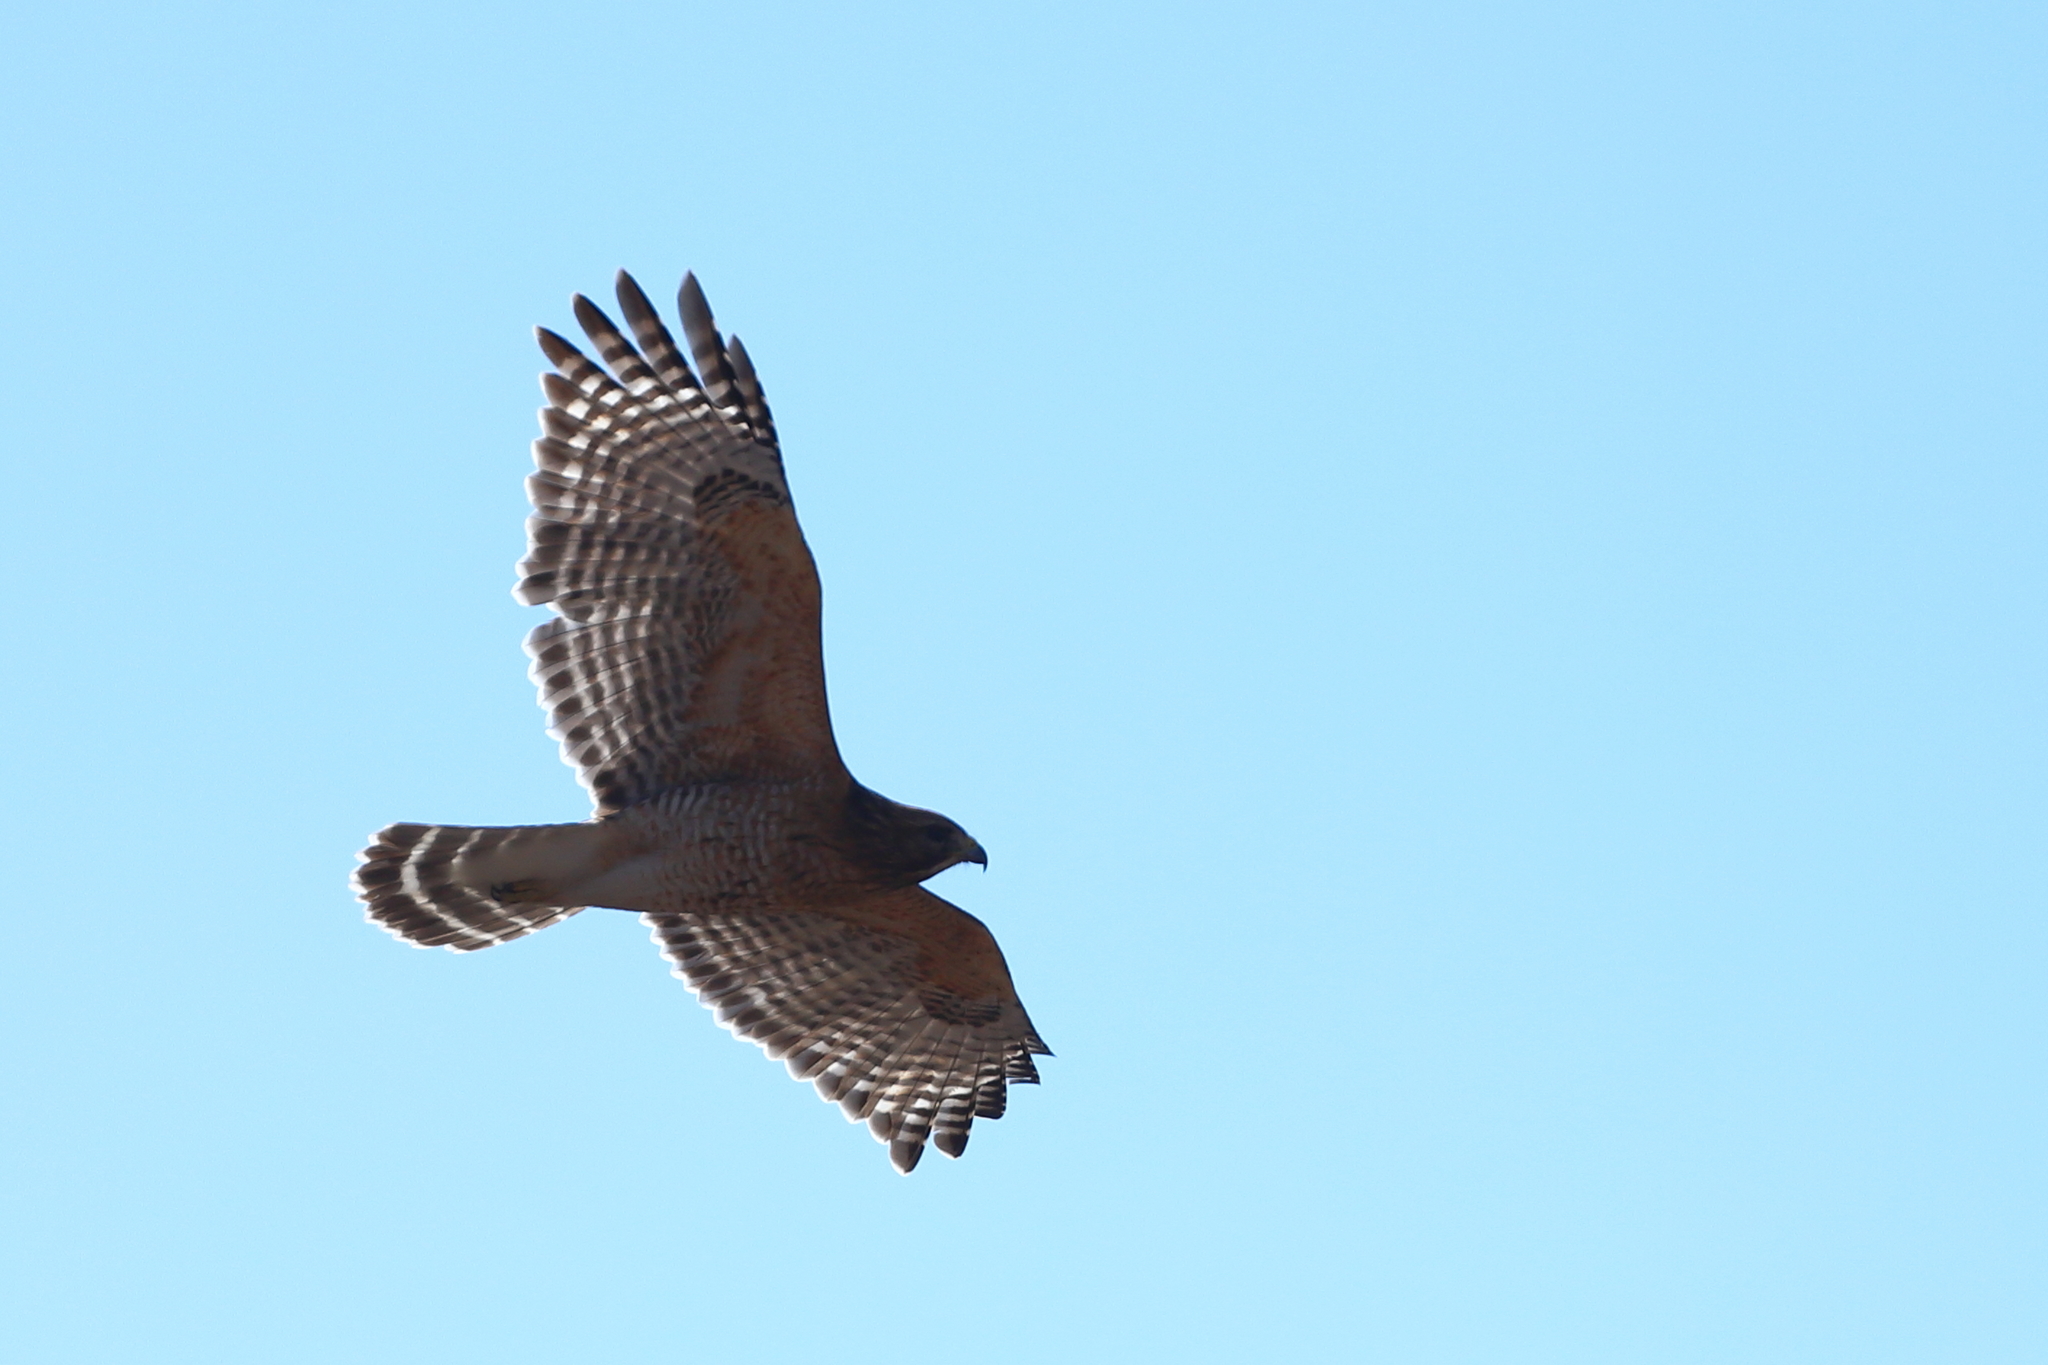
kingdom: Animalia
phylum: Chordata
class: Aves
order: Accipitriformes
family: Accipitridae
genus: Buteo
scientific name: Buteo lineatus
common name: Red-shouldered hawk
